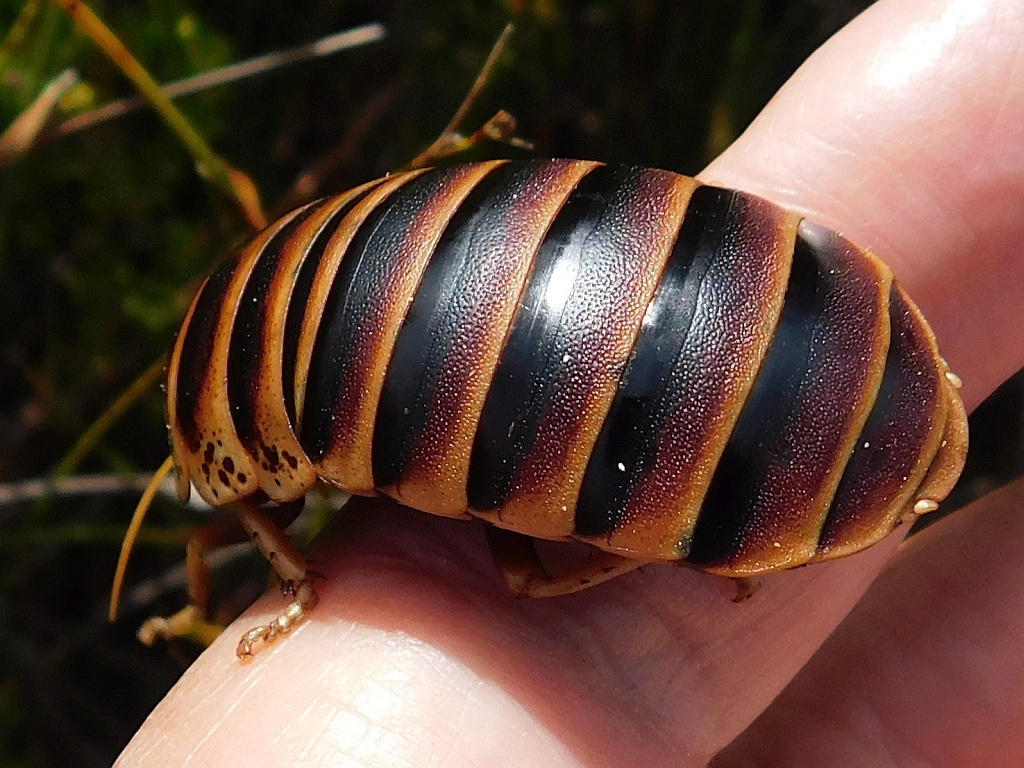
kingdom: Animalia
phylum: Arthropoda
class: Insecta
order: Blattodea
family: Blaberidae
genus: Aptera
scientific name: Aptera fusca
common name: Cape mountain cockroach
